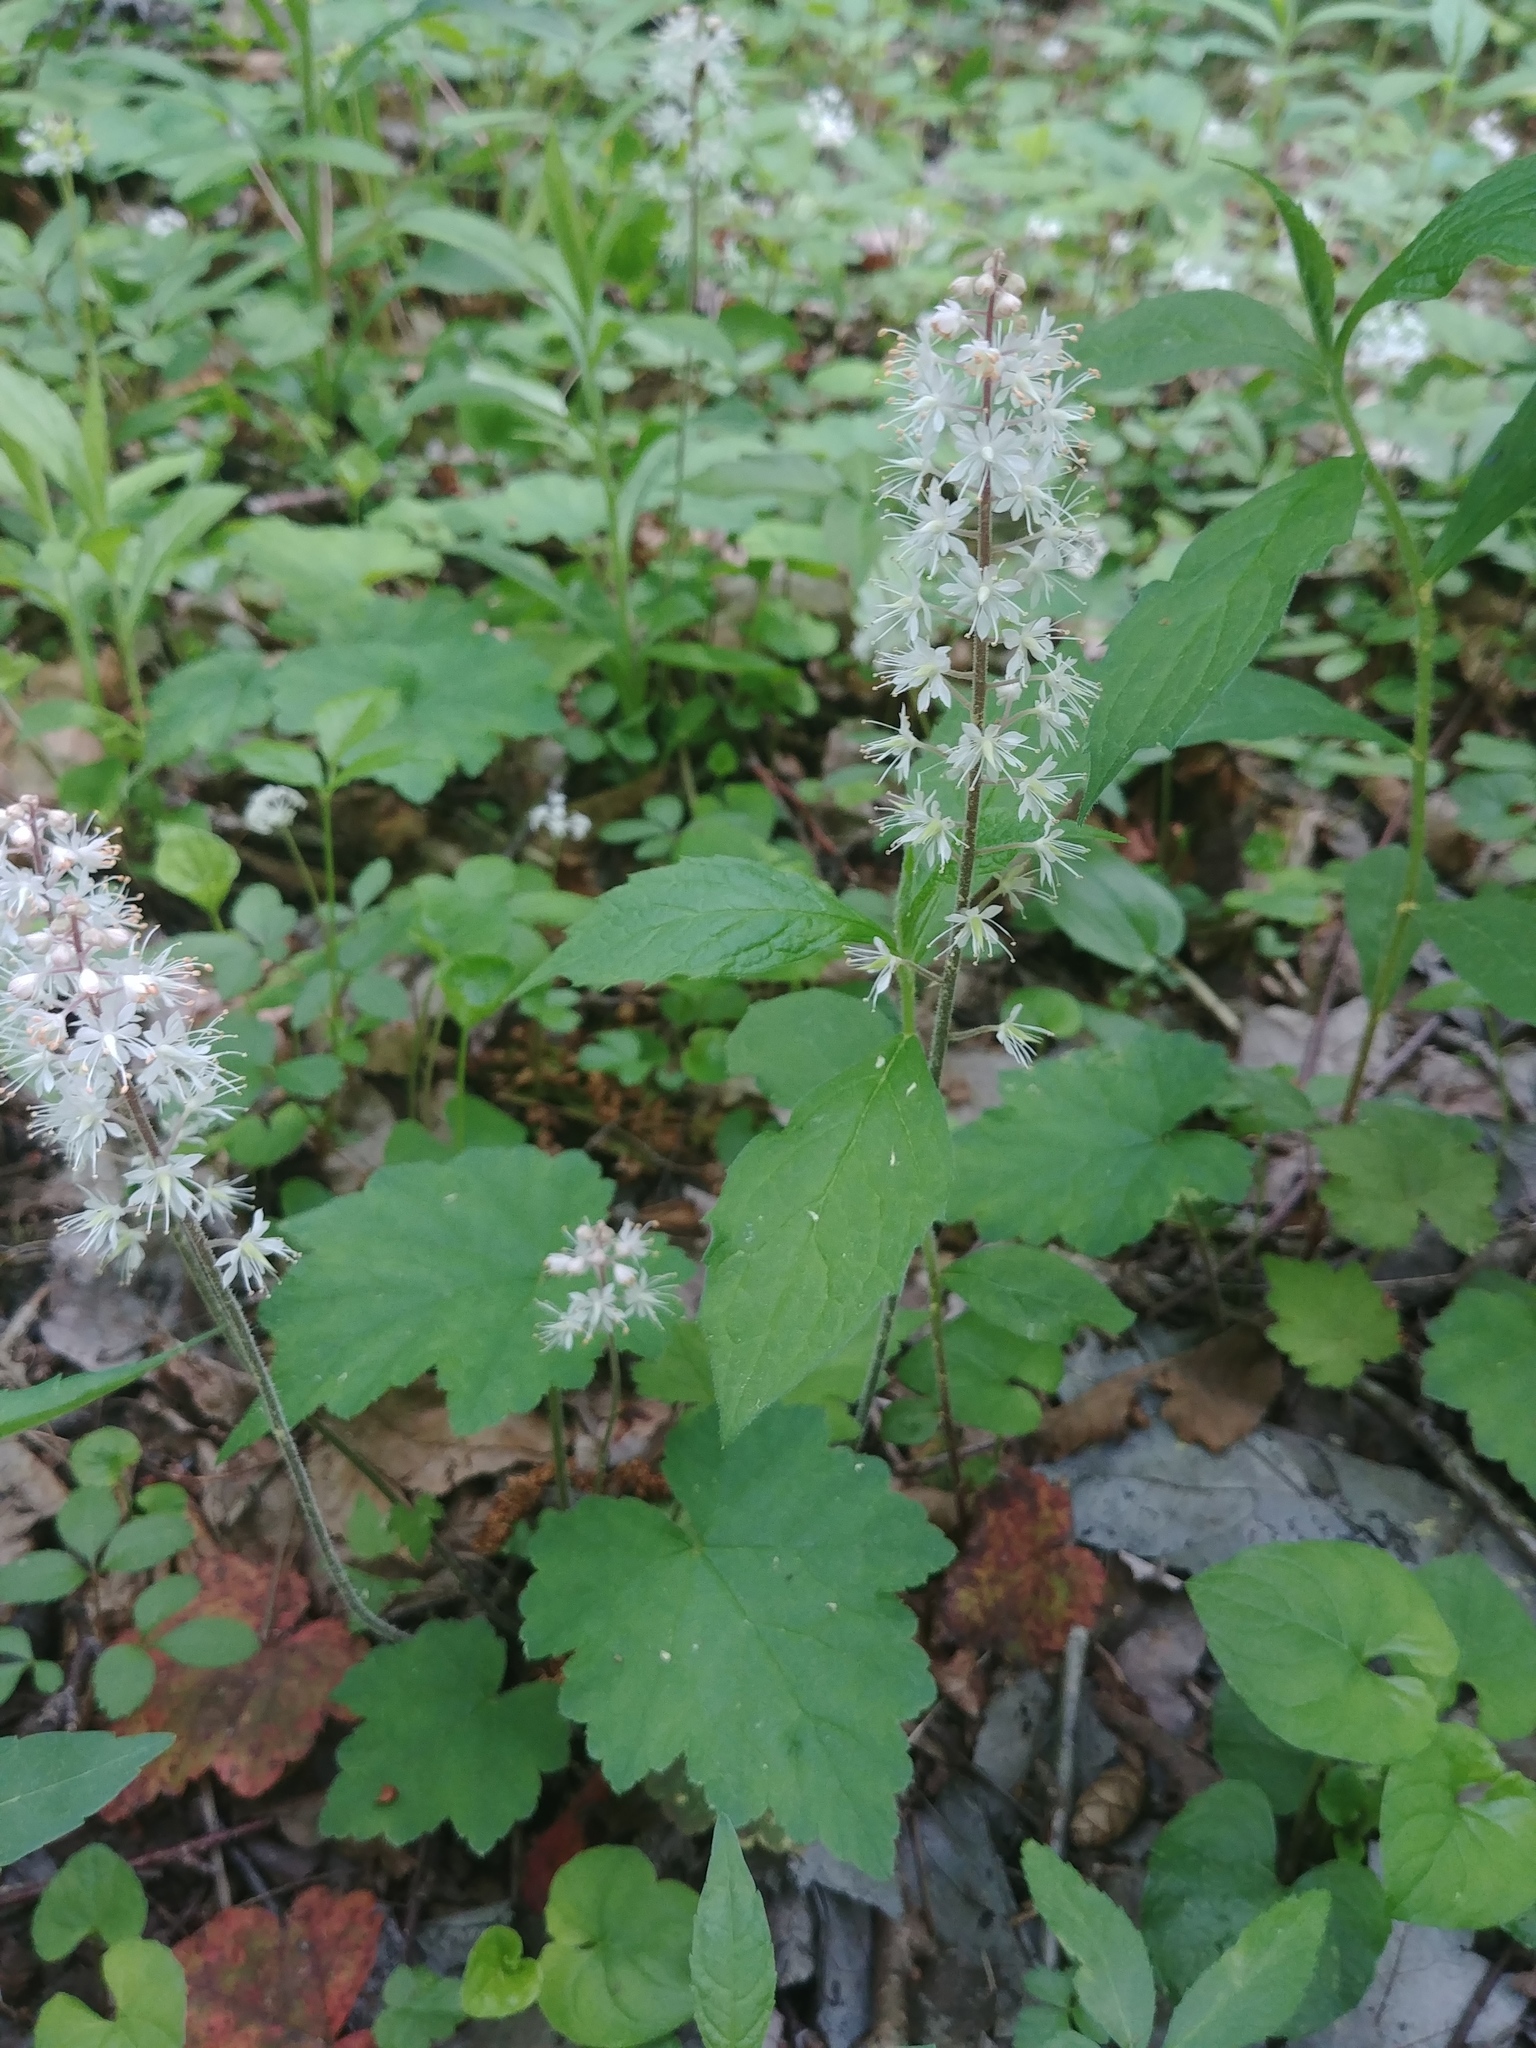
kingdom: Plantae
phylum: Tracheophyta
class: Magnoliopsida
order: Saxifragales
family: Saxifragaceae
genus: Tiarella
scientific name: Tiarella stolonifera
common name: Stoloniferous foamflower
